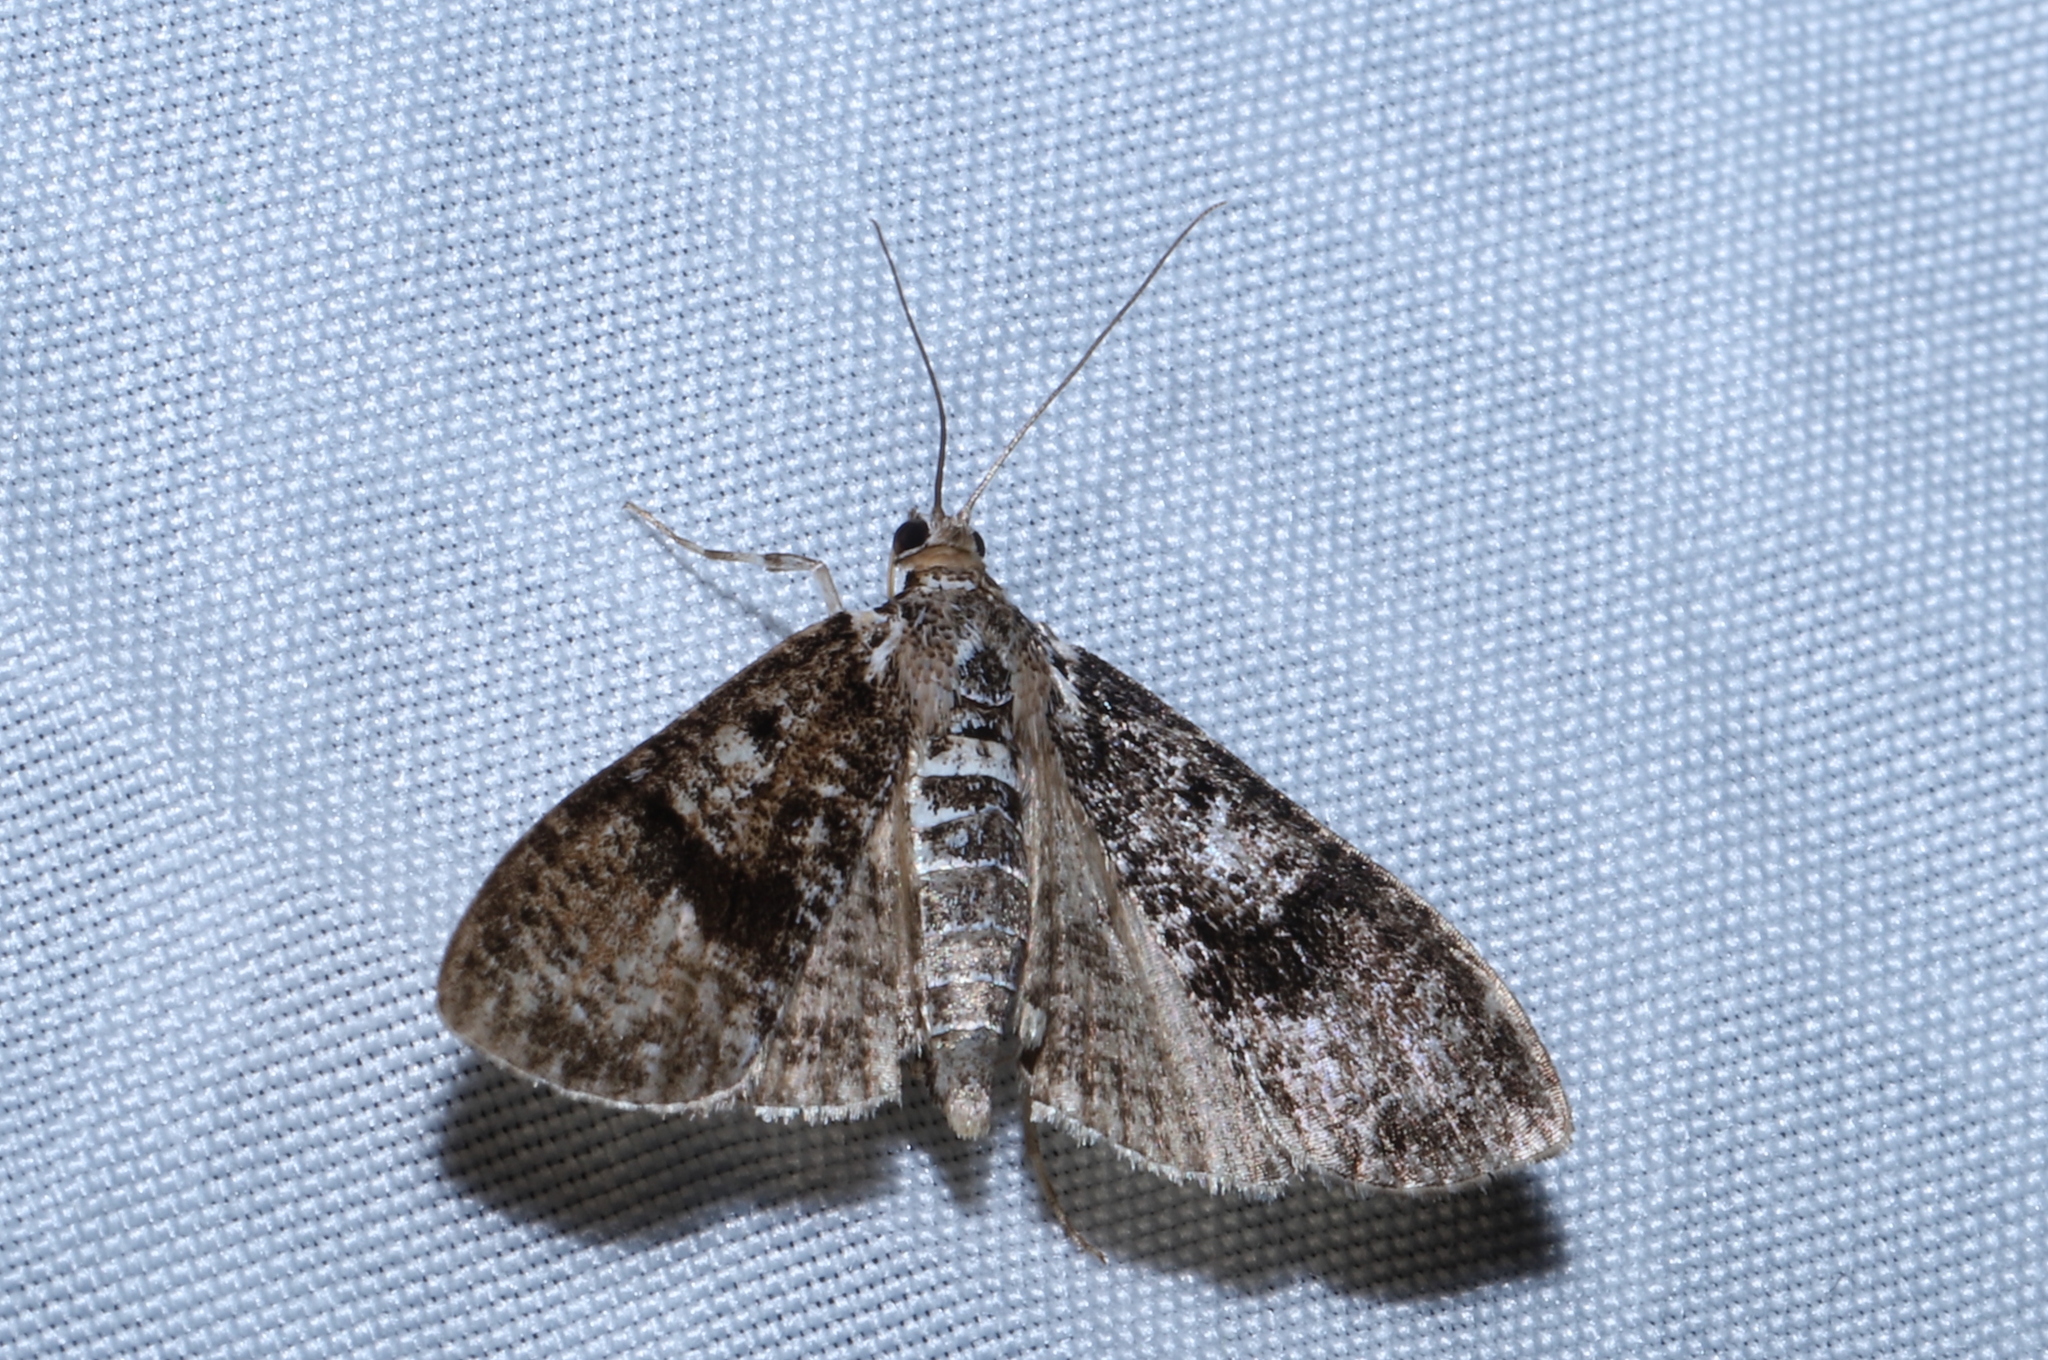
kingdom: Animalia
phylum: Arthropoda
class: Insecta
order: Lepidoptera
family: Crambidae
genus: Palpita
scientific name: Palpita magniferalis
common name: Splendid palpita moth
